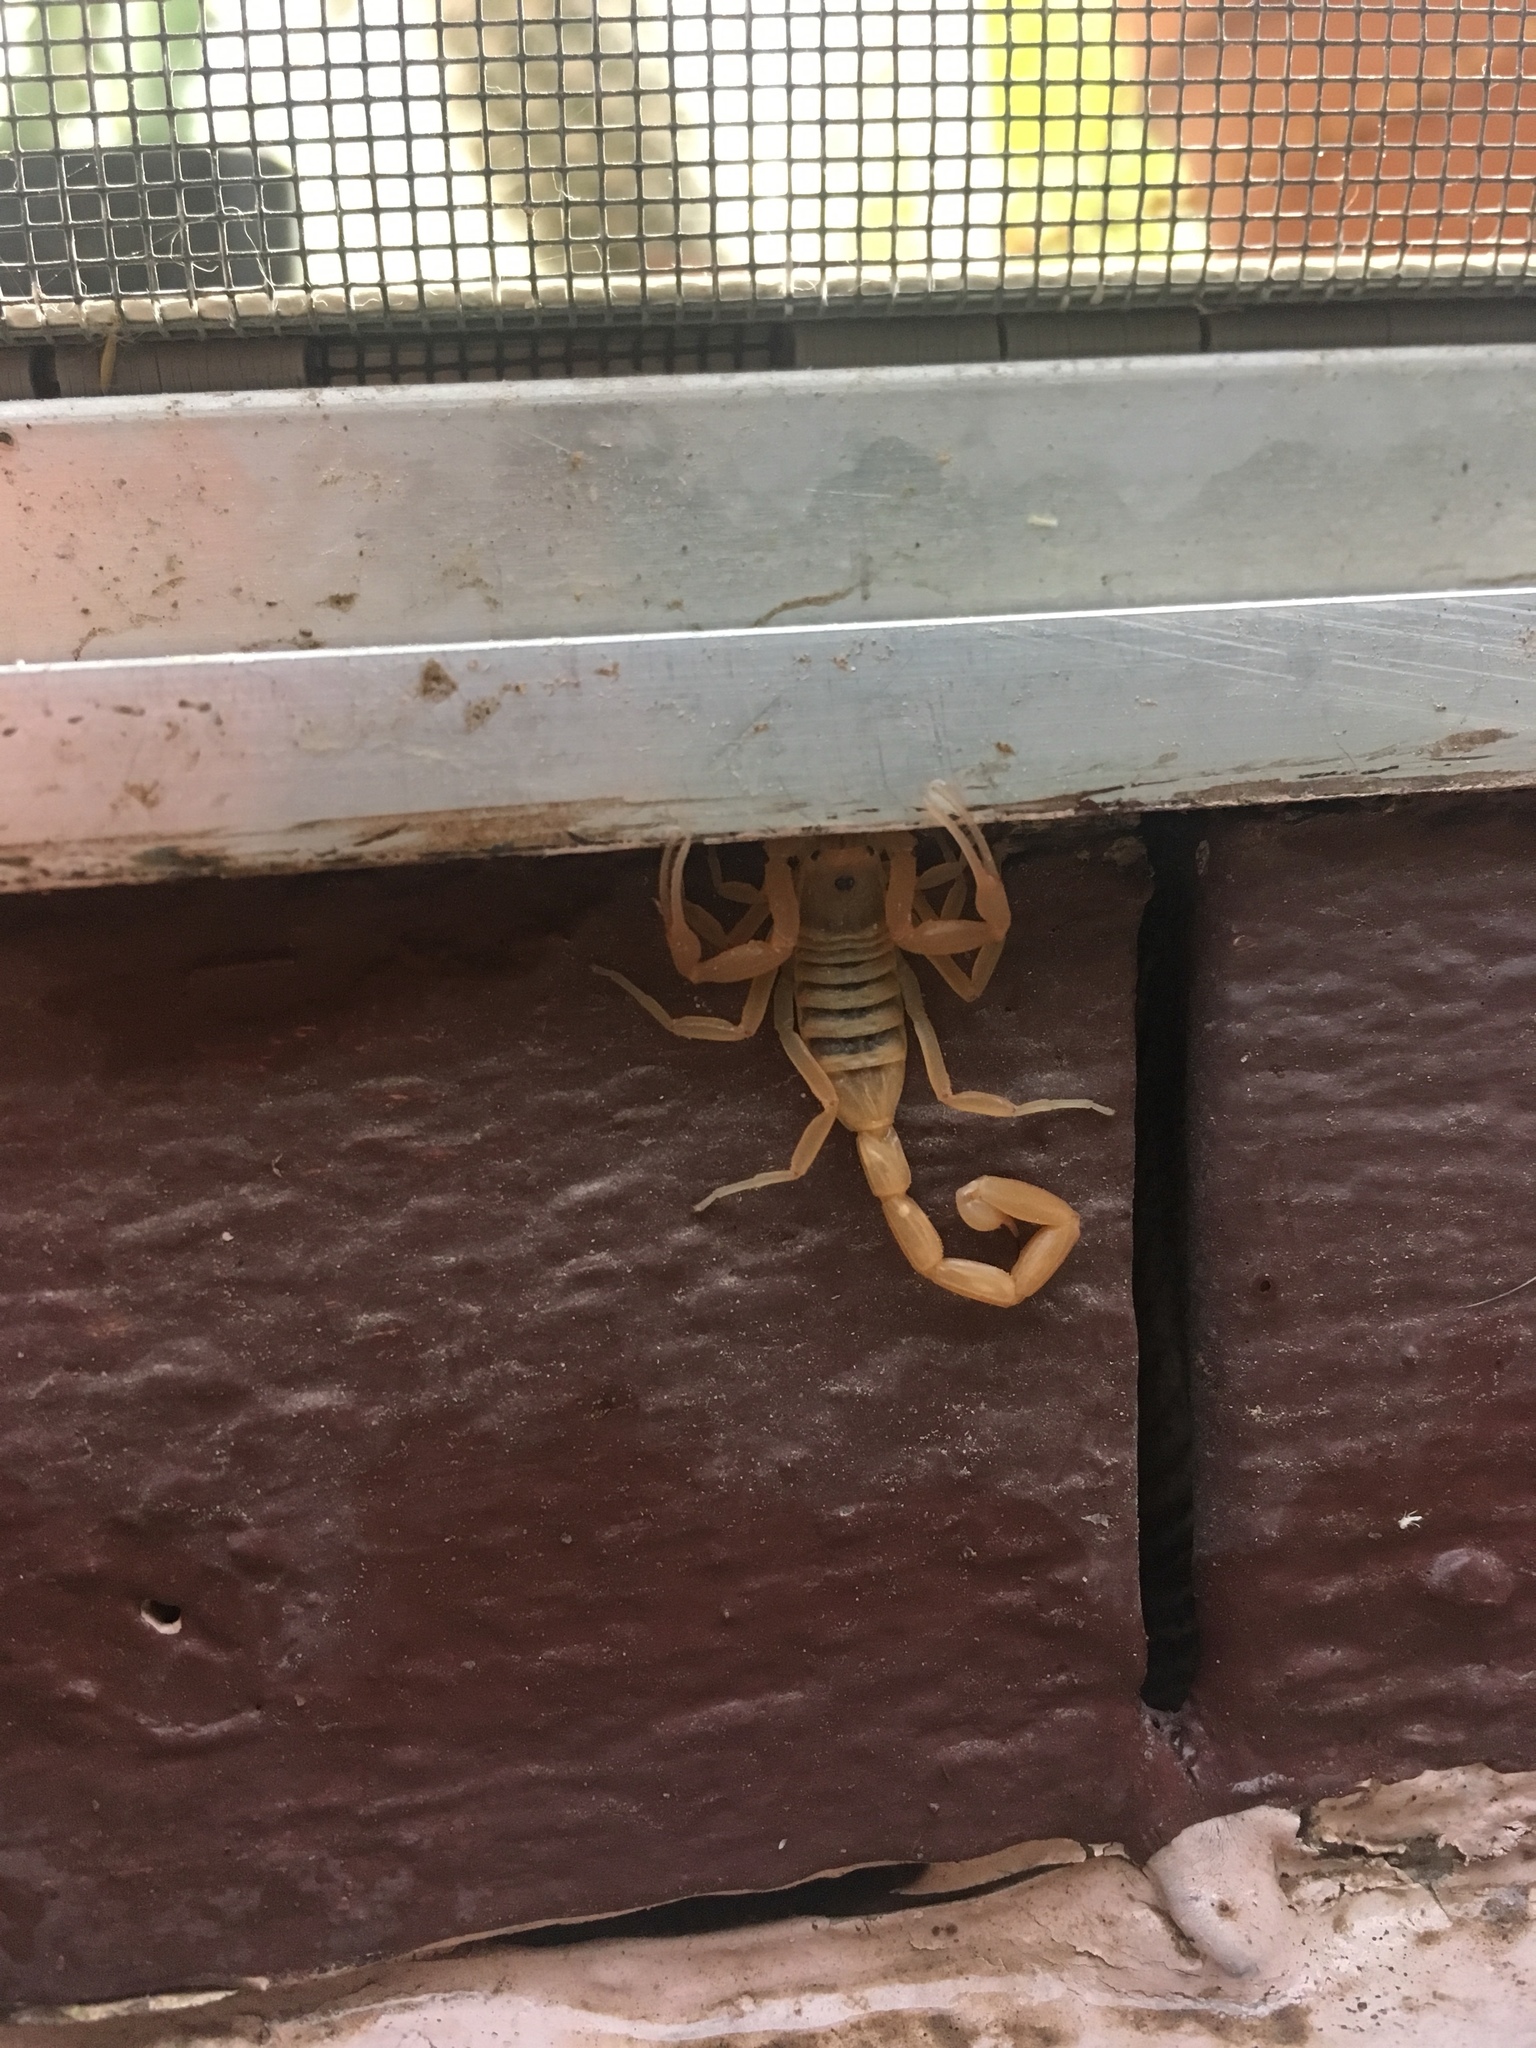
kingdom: Animalia
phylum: Arthropoda
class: Arachnida
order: Scorpiones
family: Buthidae
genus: Centruroides
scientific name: Centruroides sculpturatus
